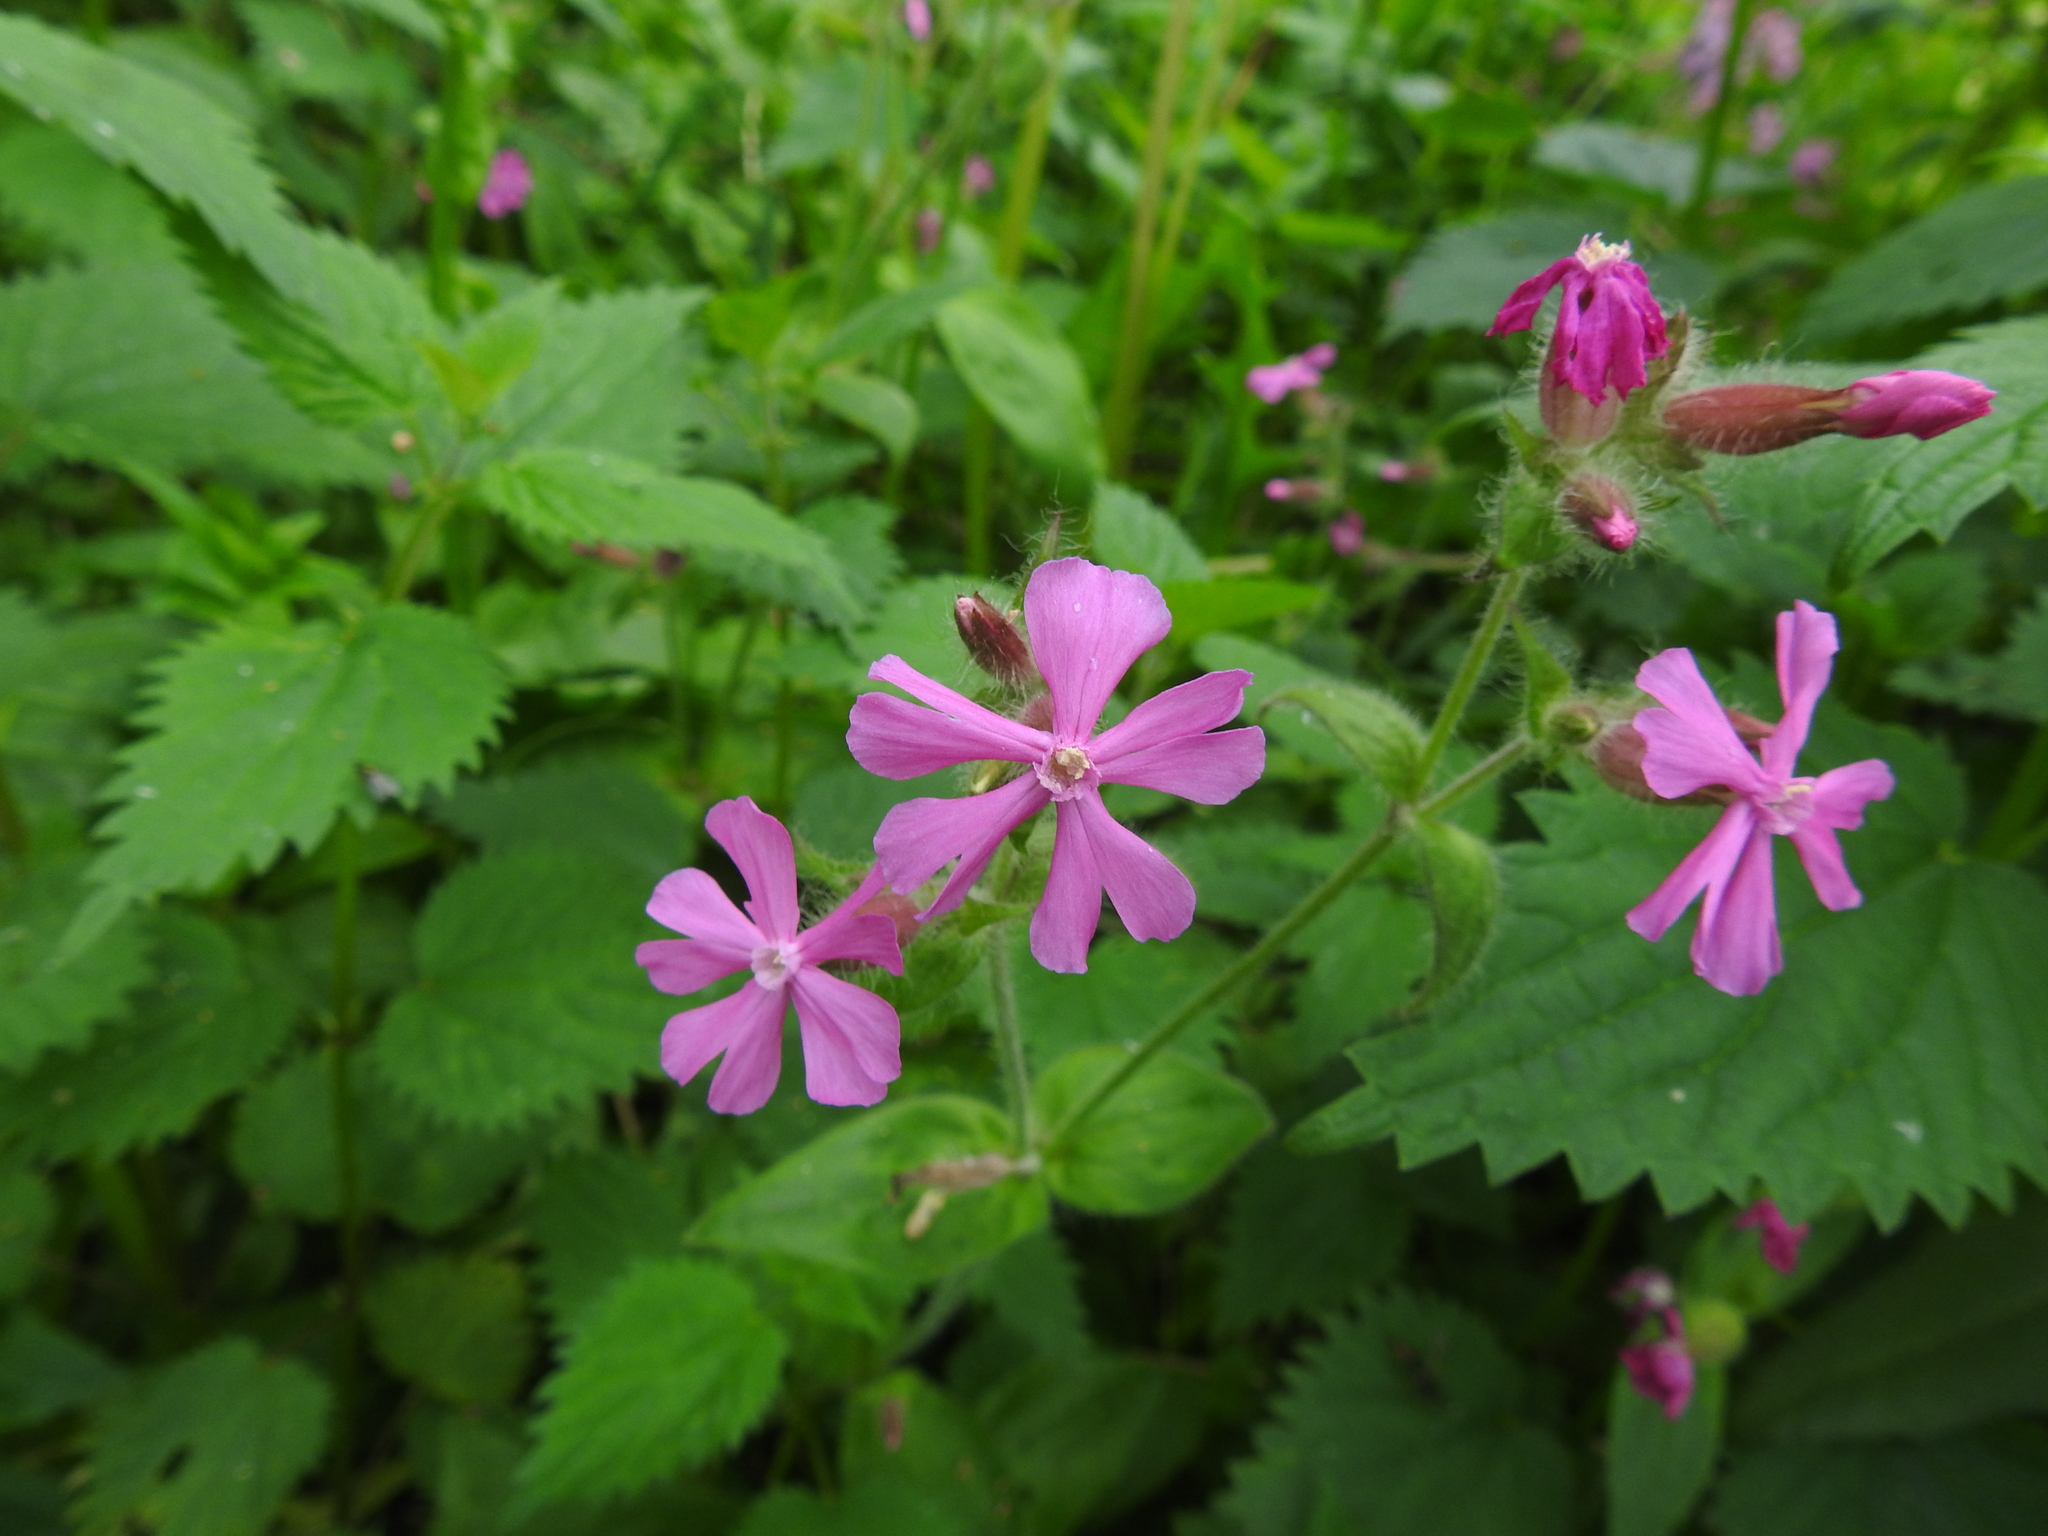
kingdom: Plantae
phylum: Tracheophyta
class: Magnoliopsida
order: Caryophyllales
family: Caryophyllaceae
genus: Silene
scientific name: Silene dioica
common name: Red campion
